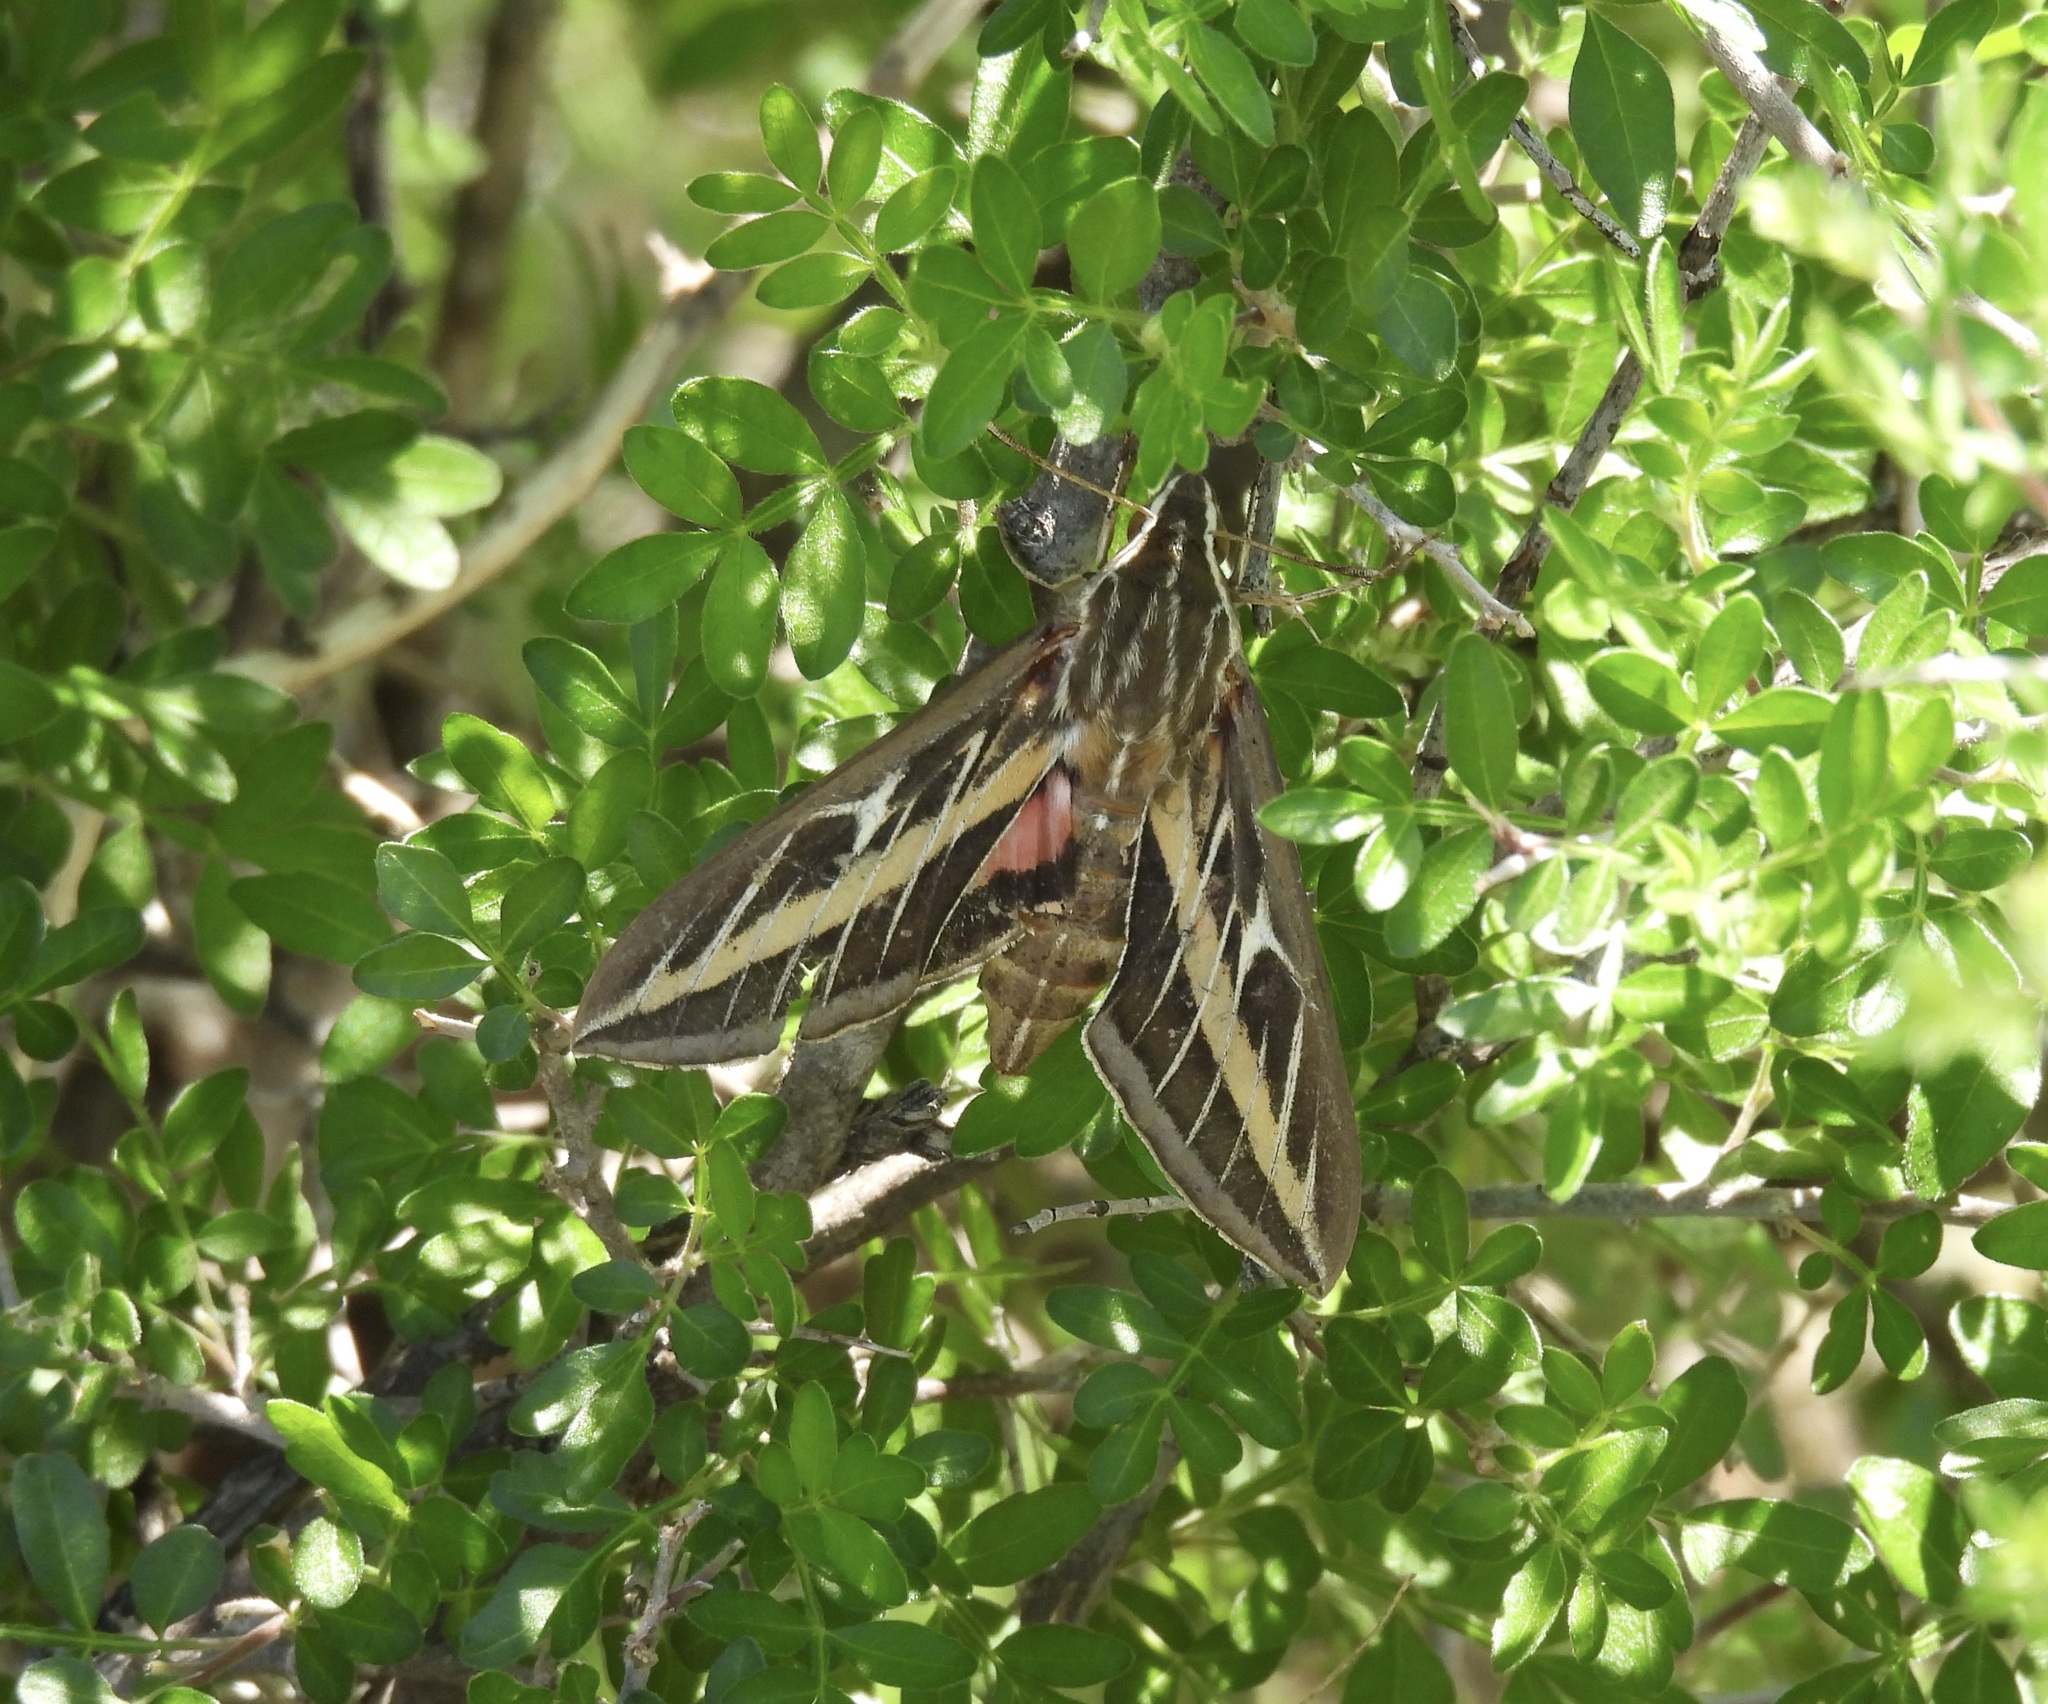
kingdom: Animalia
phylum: Arthropoda
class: Insecta
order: Lepidoptera
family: Sphingidae
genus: Hyles
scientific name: Hyles lineata
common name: White-lined sphinx
